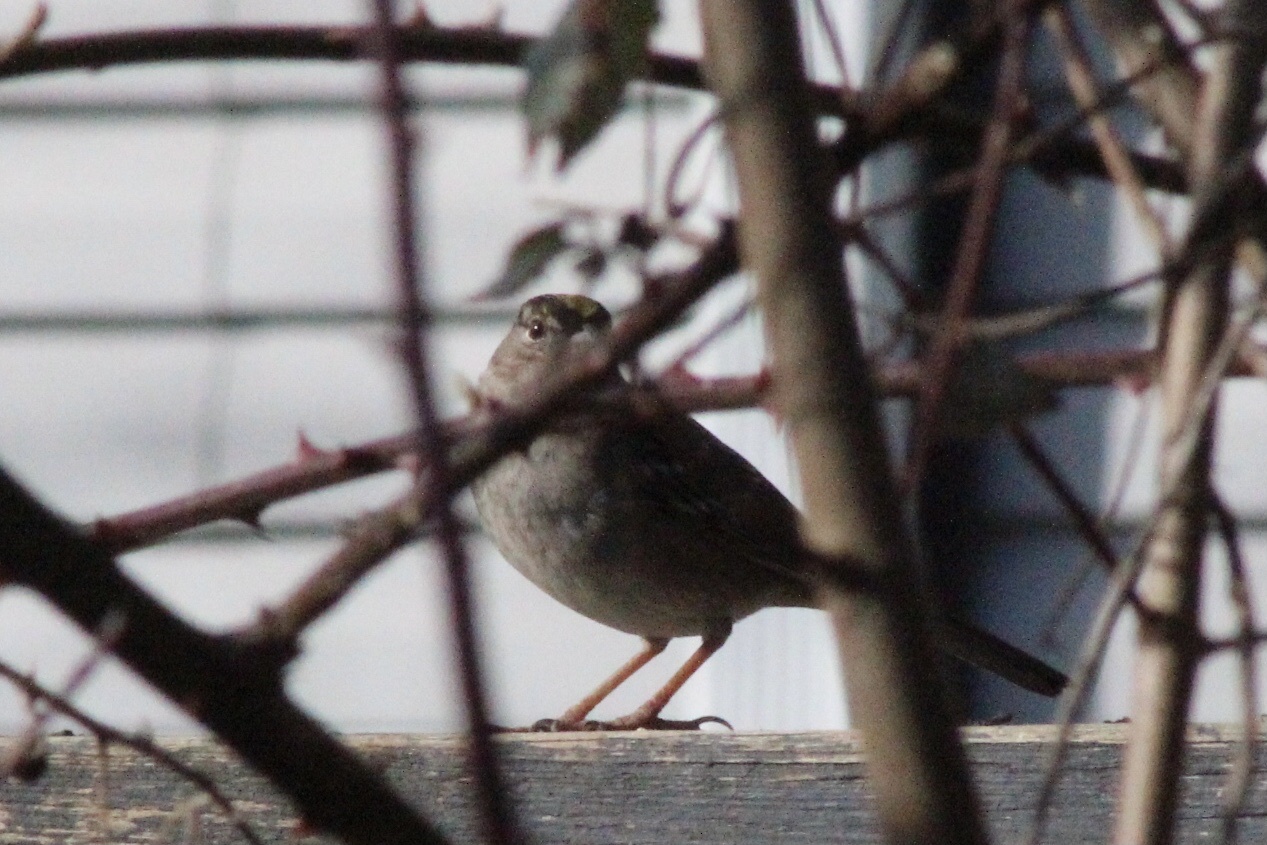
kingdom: Animalia
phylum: Chordata
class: Aves
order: Passeriformes
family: Passerellidae
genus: Zonotrichia
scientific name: Zonotrichia atricapilla
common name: Golden-crowned sparrow
